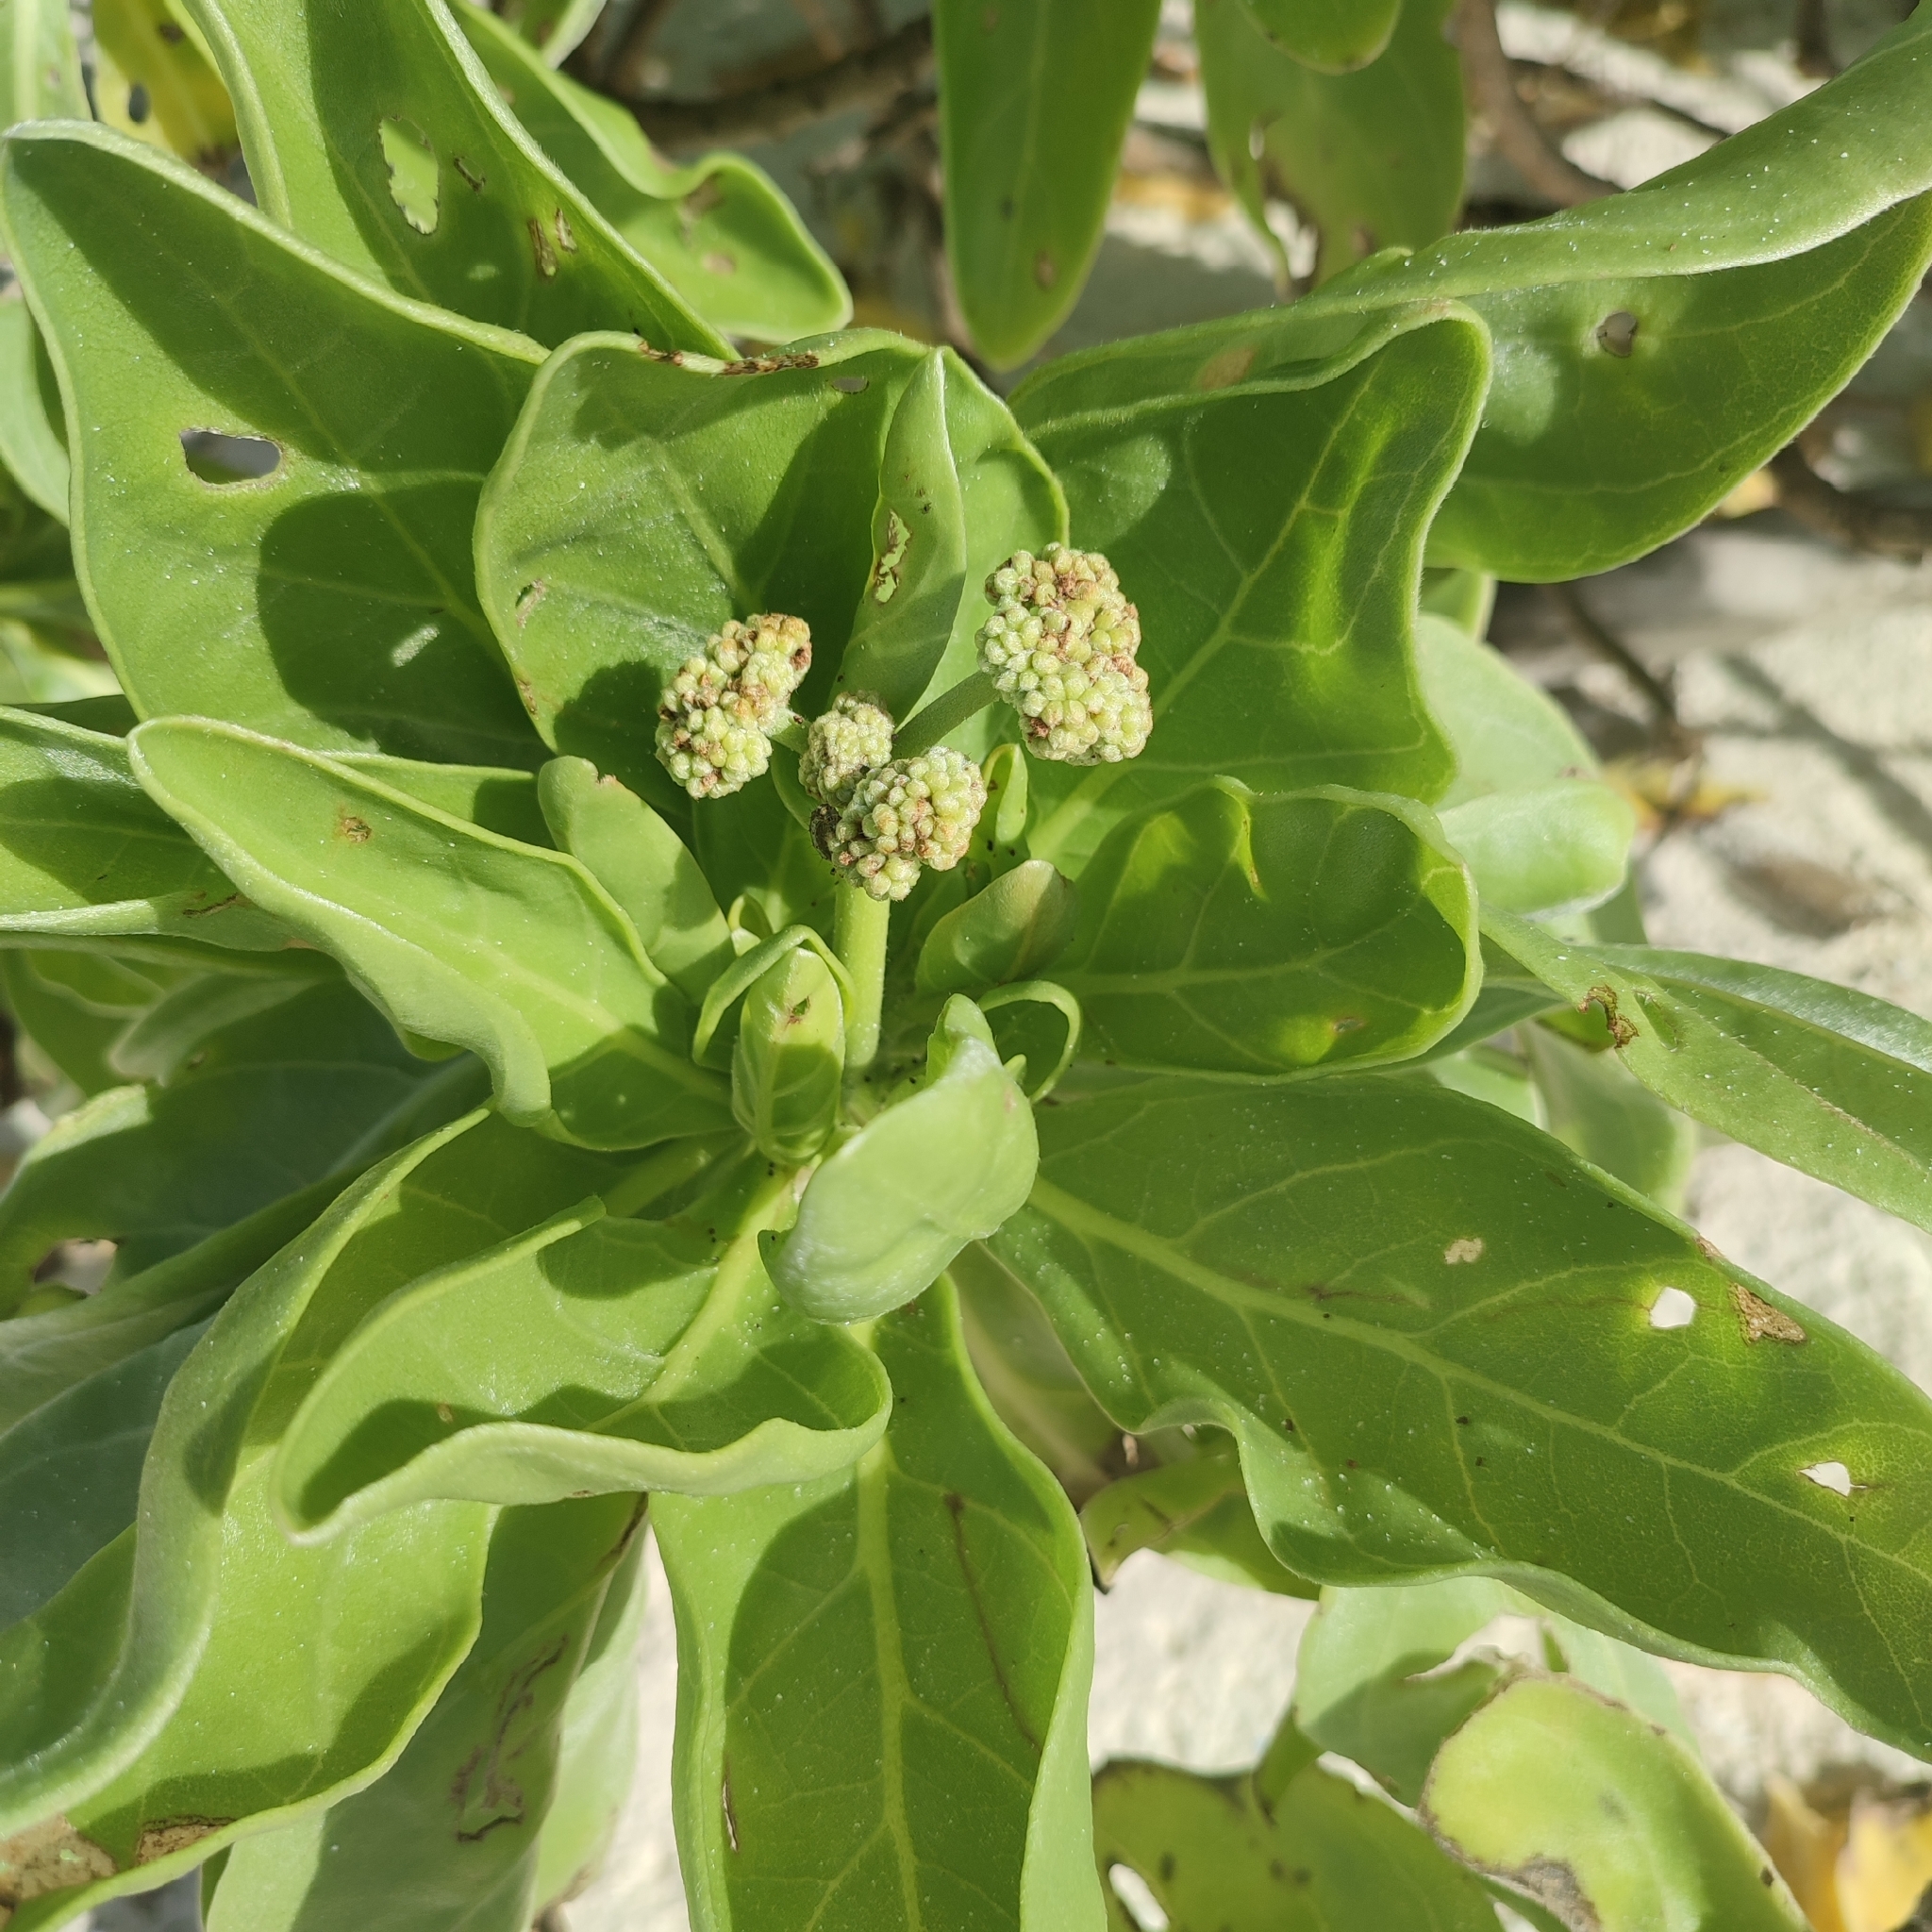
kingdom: Plantae
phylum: Tracheophyta
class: Magnoliopsida
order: Boraginales
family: Heliotropiaceae
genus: Heliotropium
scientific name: Heliotropium velutinum
